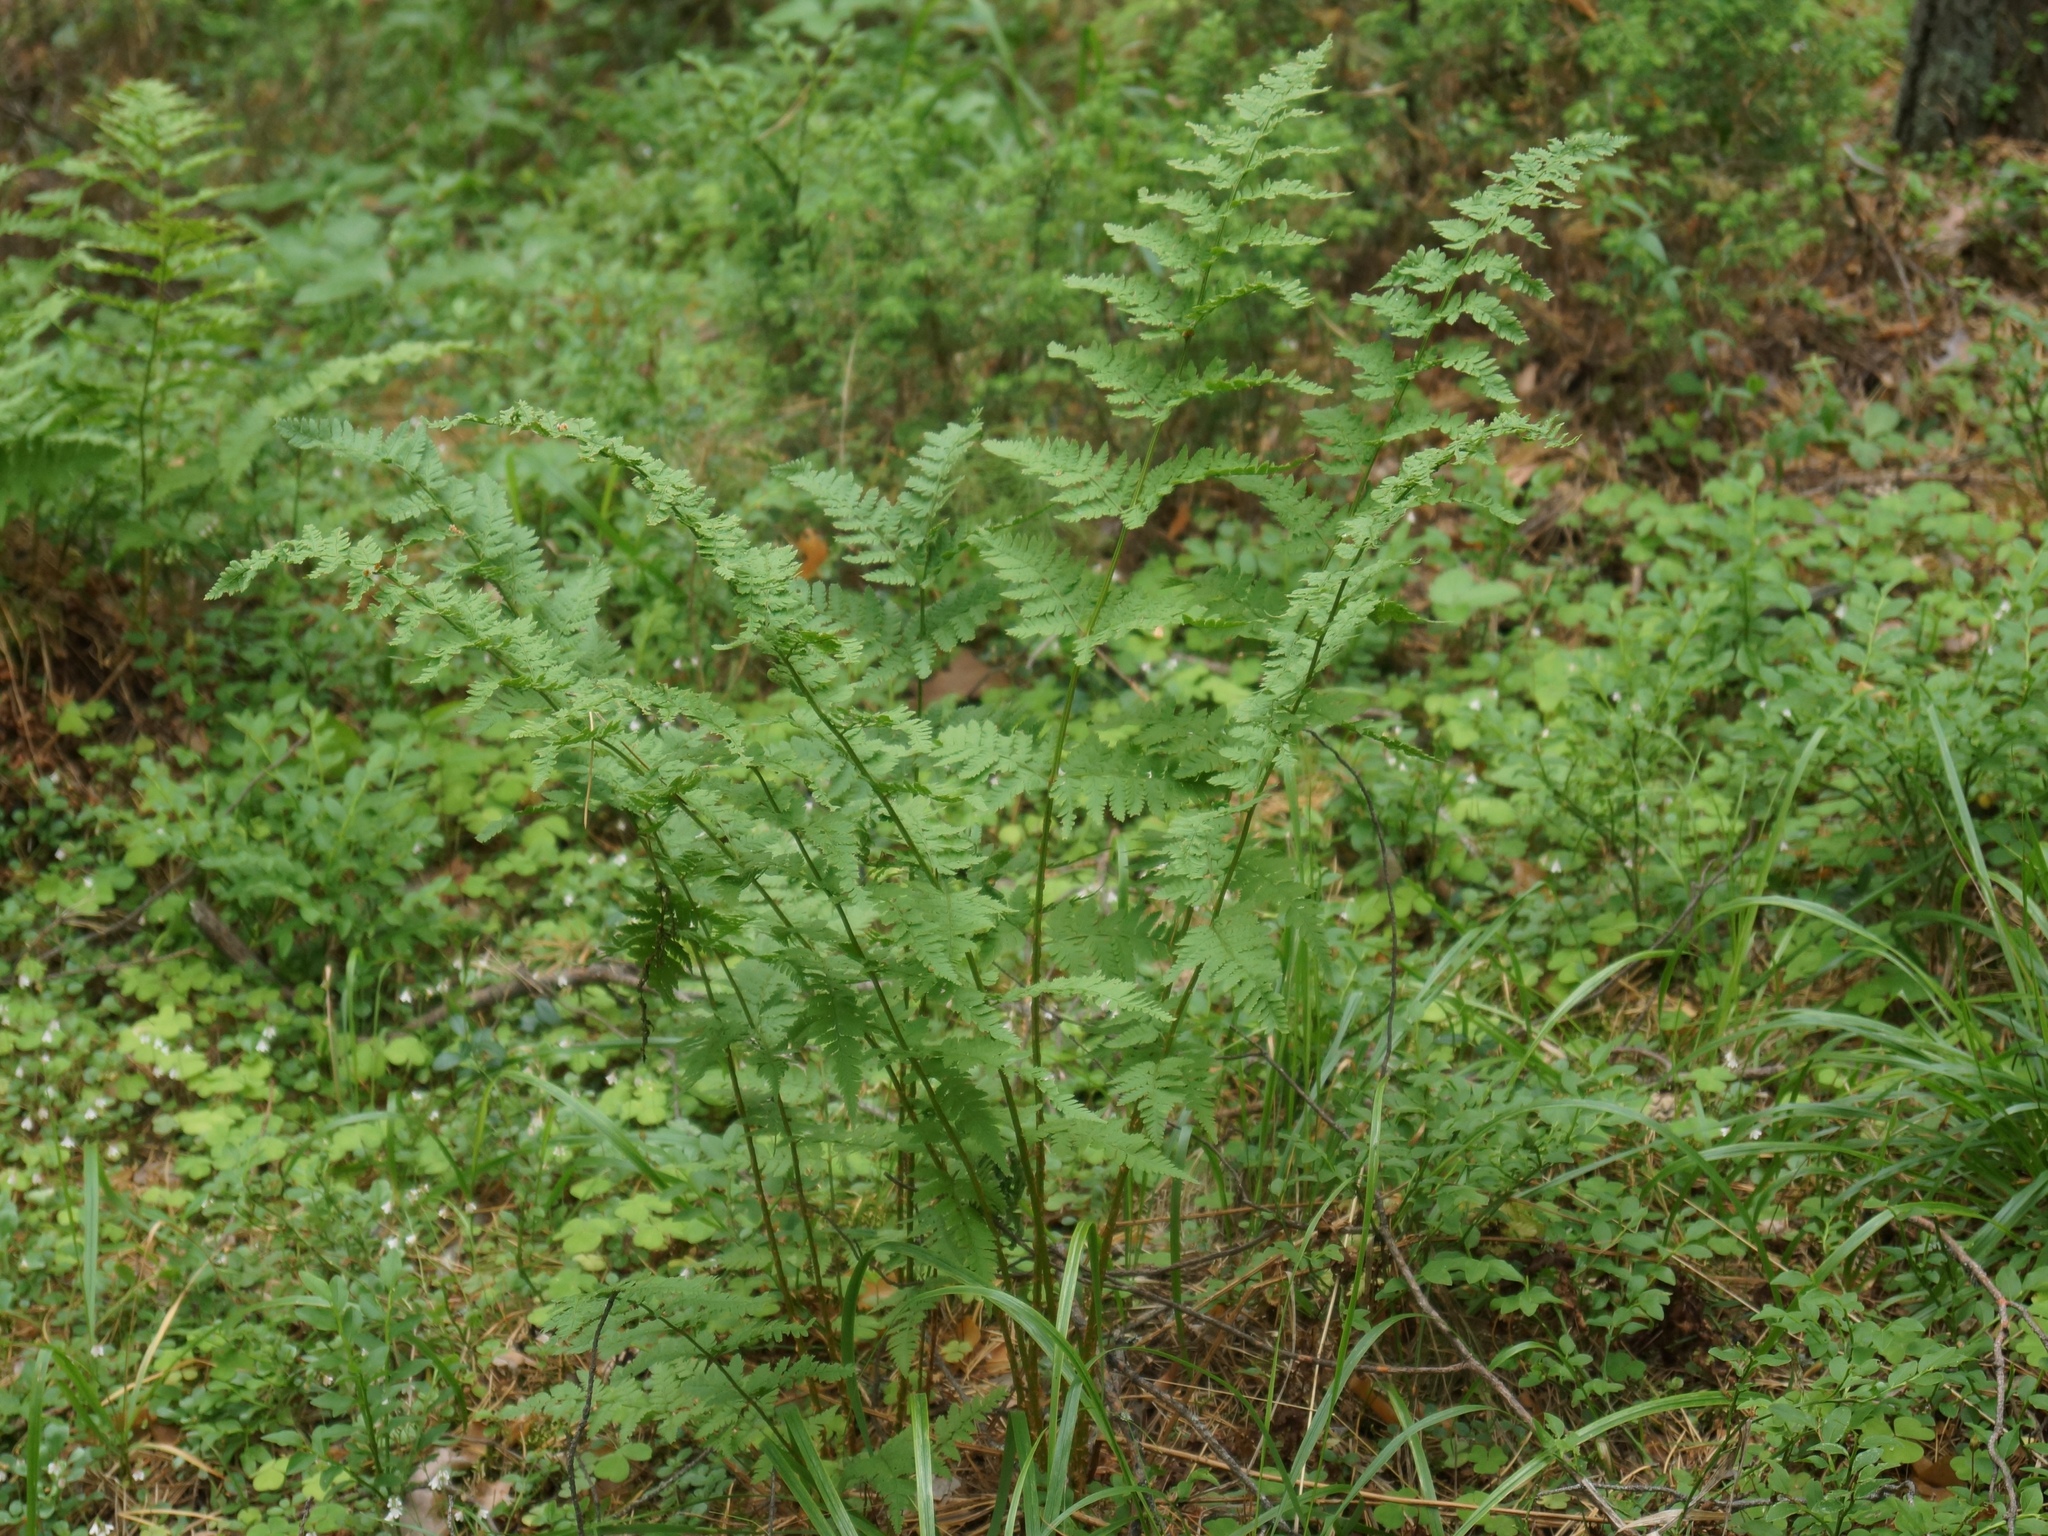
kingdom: Plantae
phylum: Tracheophyta
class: Polypodiopsida
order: Polypodiales
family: Dryopteridaceae
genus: Dryopteris
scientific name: Dryopteris carthusiana
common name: Narrow buckler-fern
